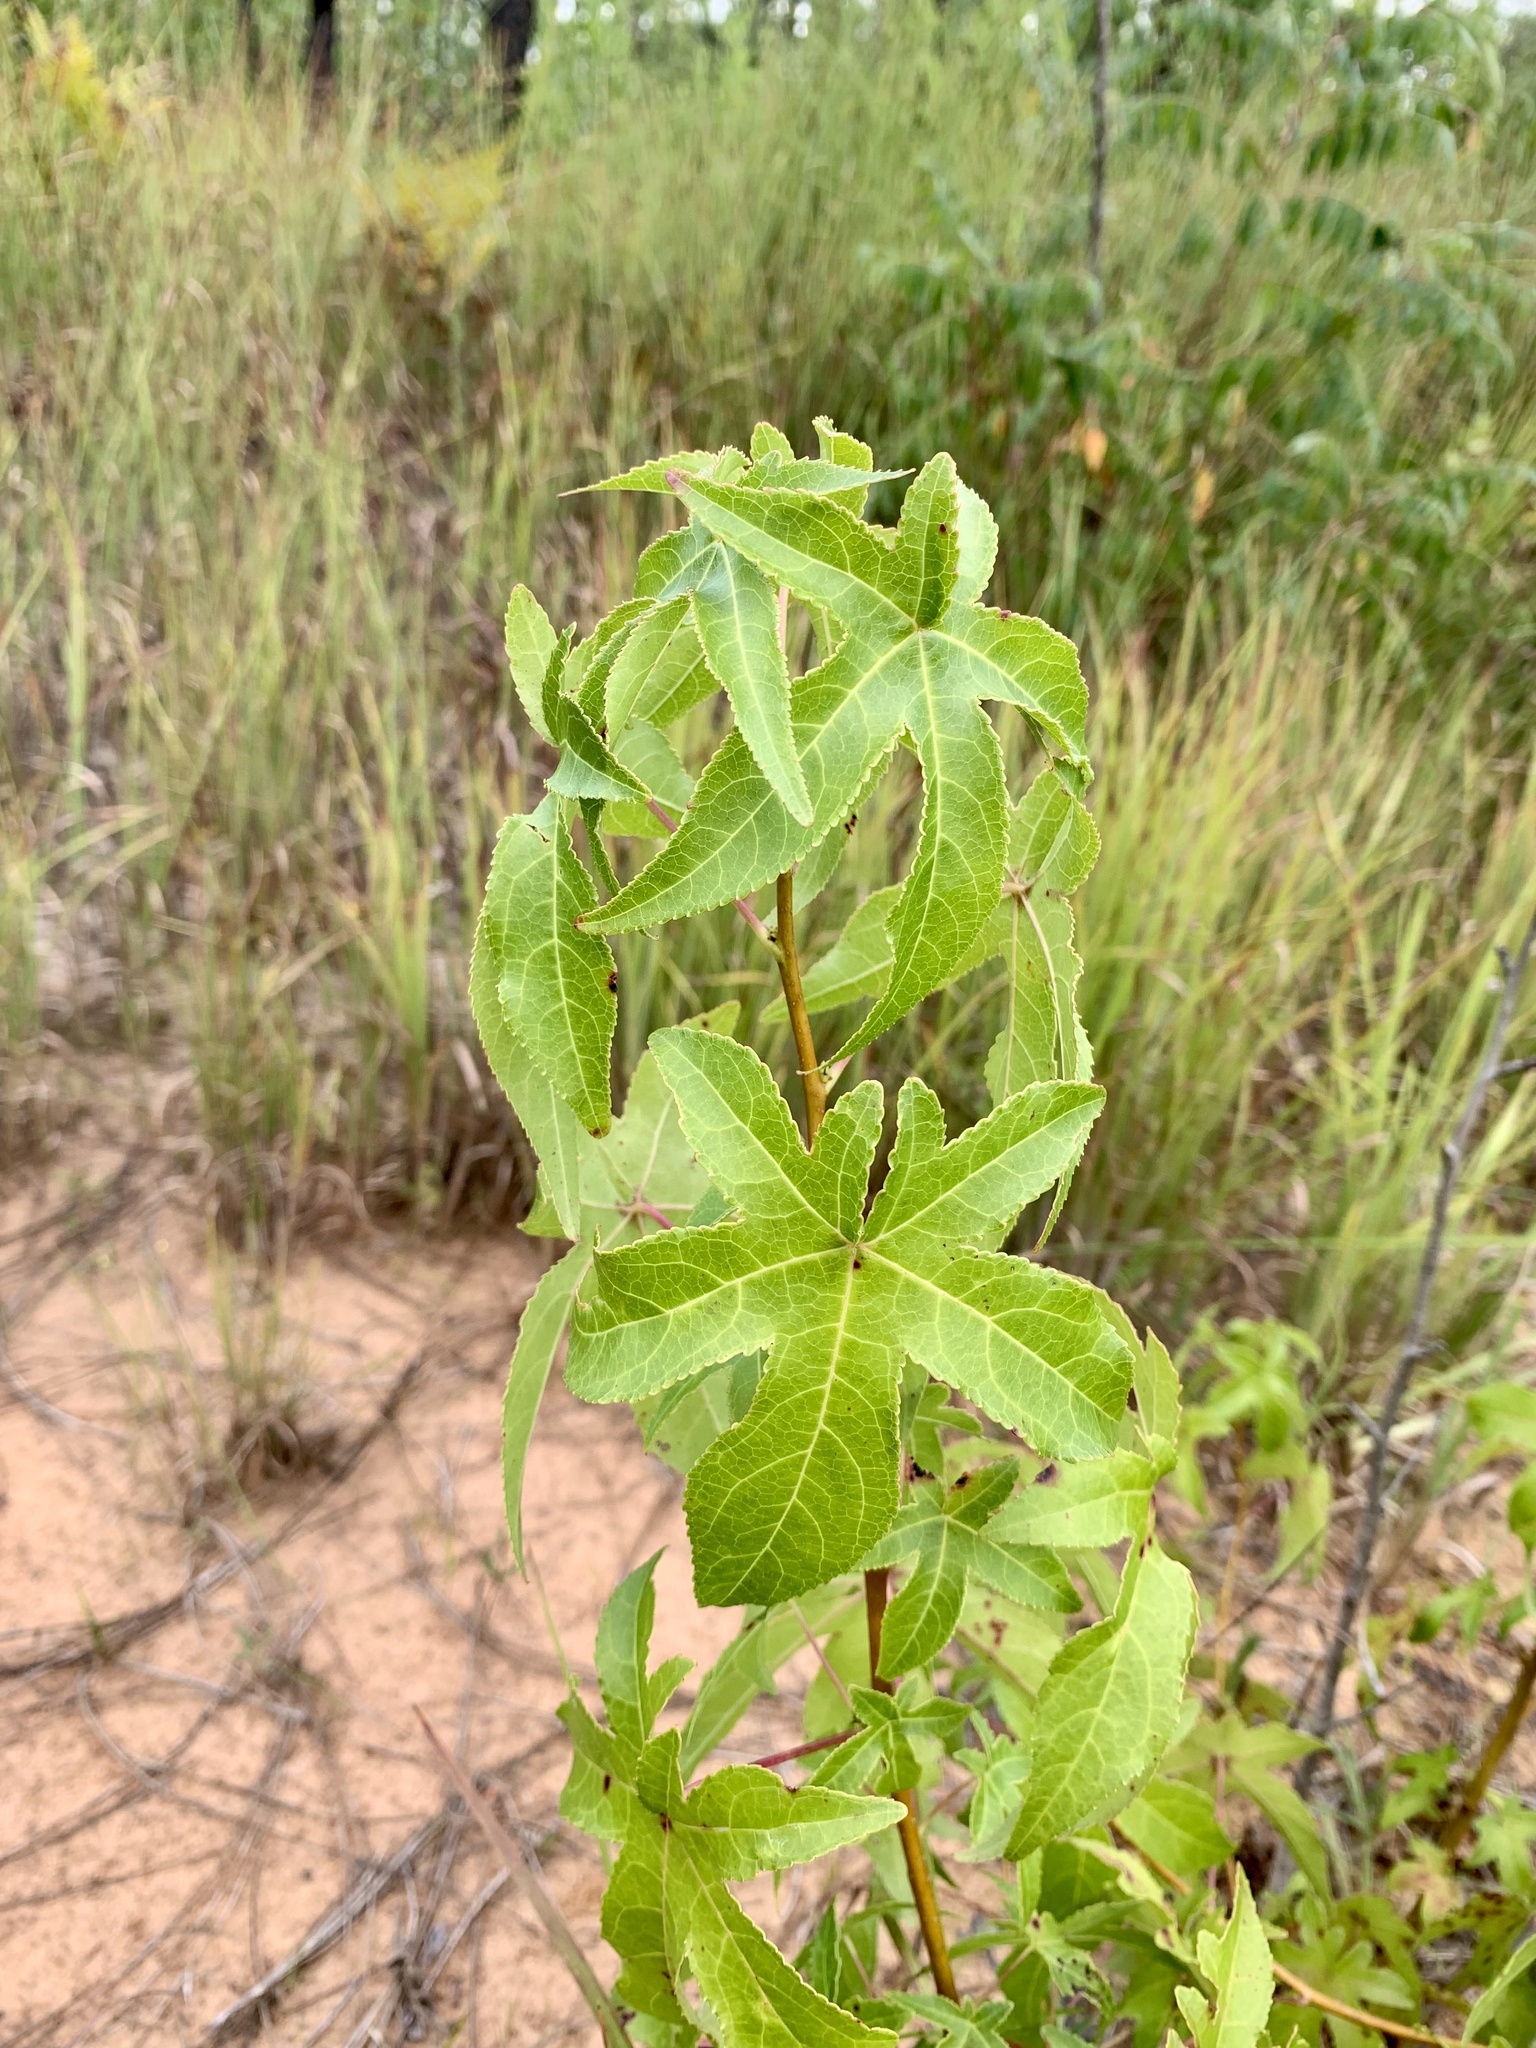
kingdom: Plantae
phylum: Tracheophyta
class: Magnoliopsida
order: Saxifragales
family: Altingiaceae
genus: Liquidambar
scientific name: Liquidambar styraciflua
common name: Sweet gum
